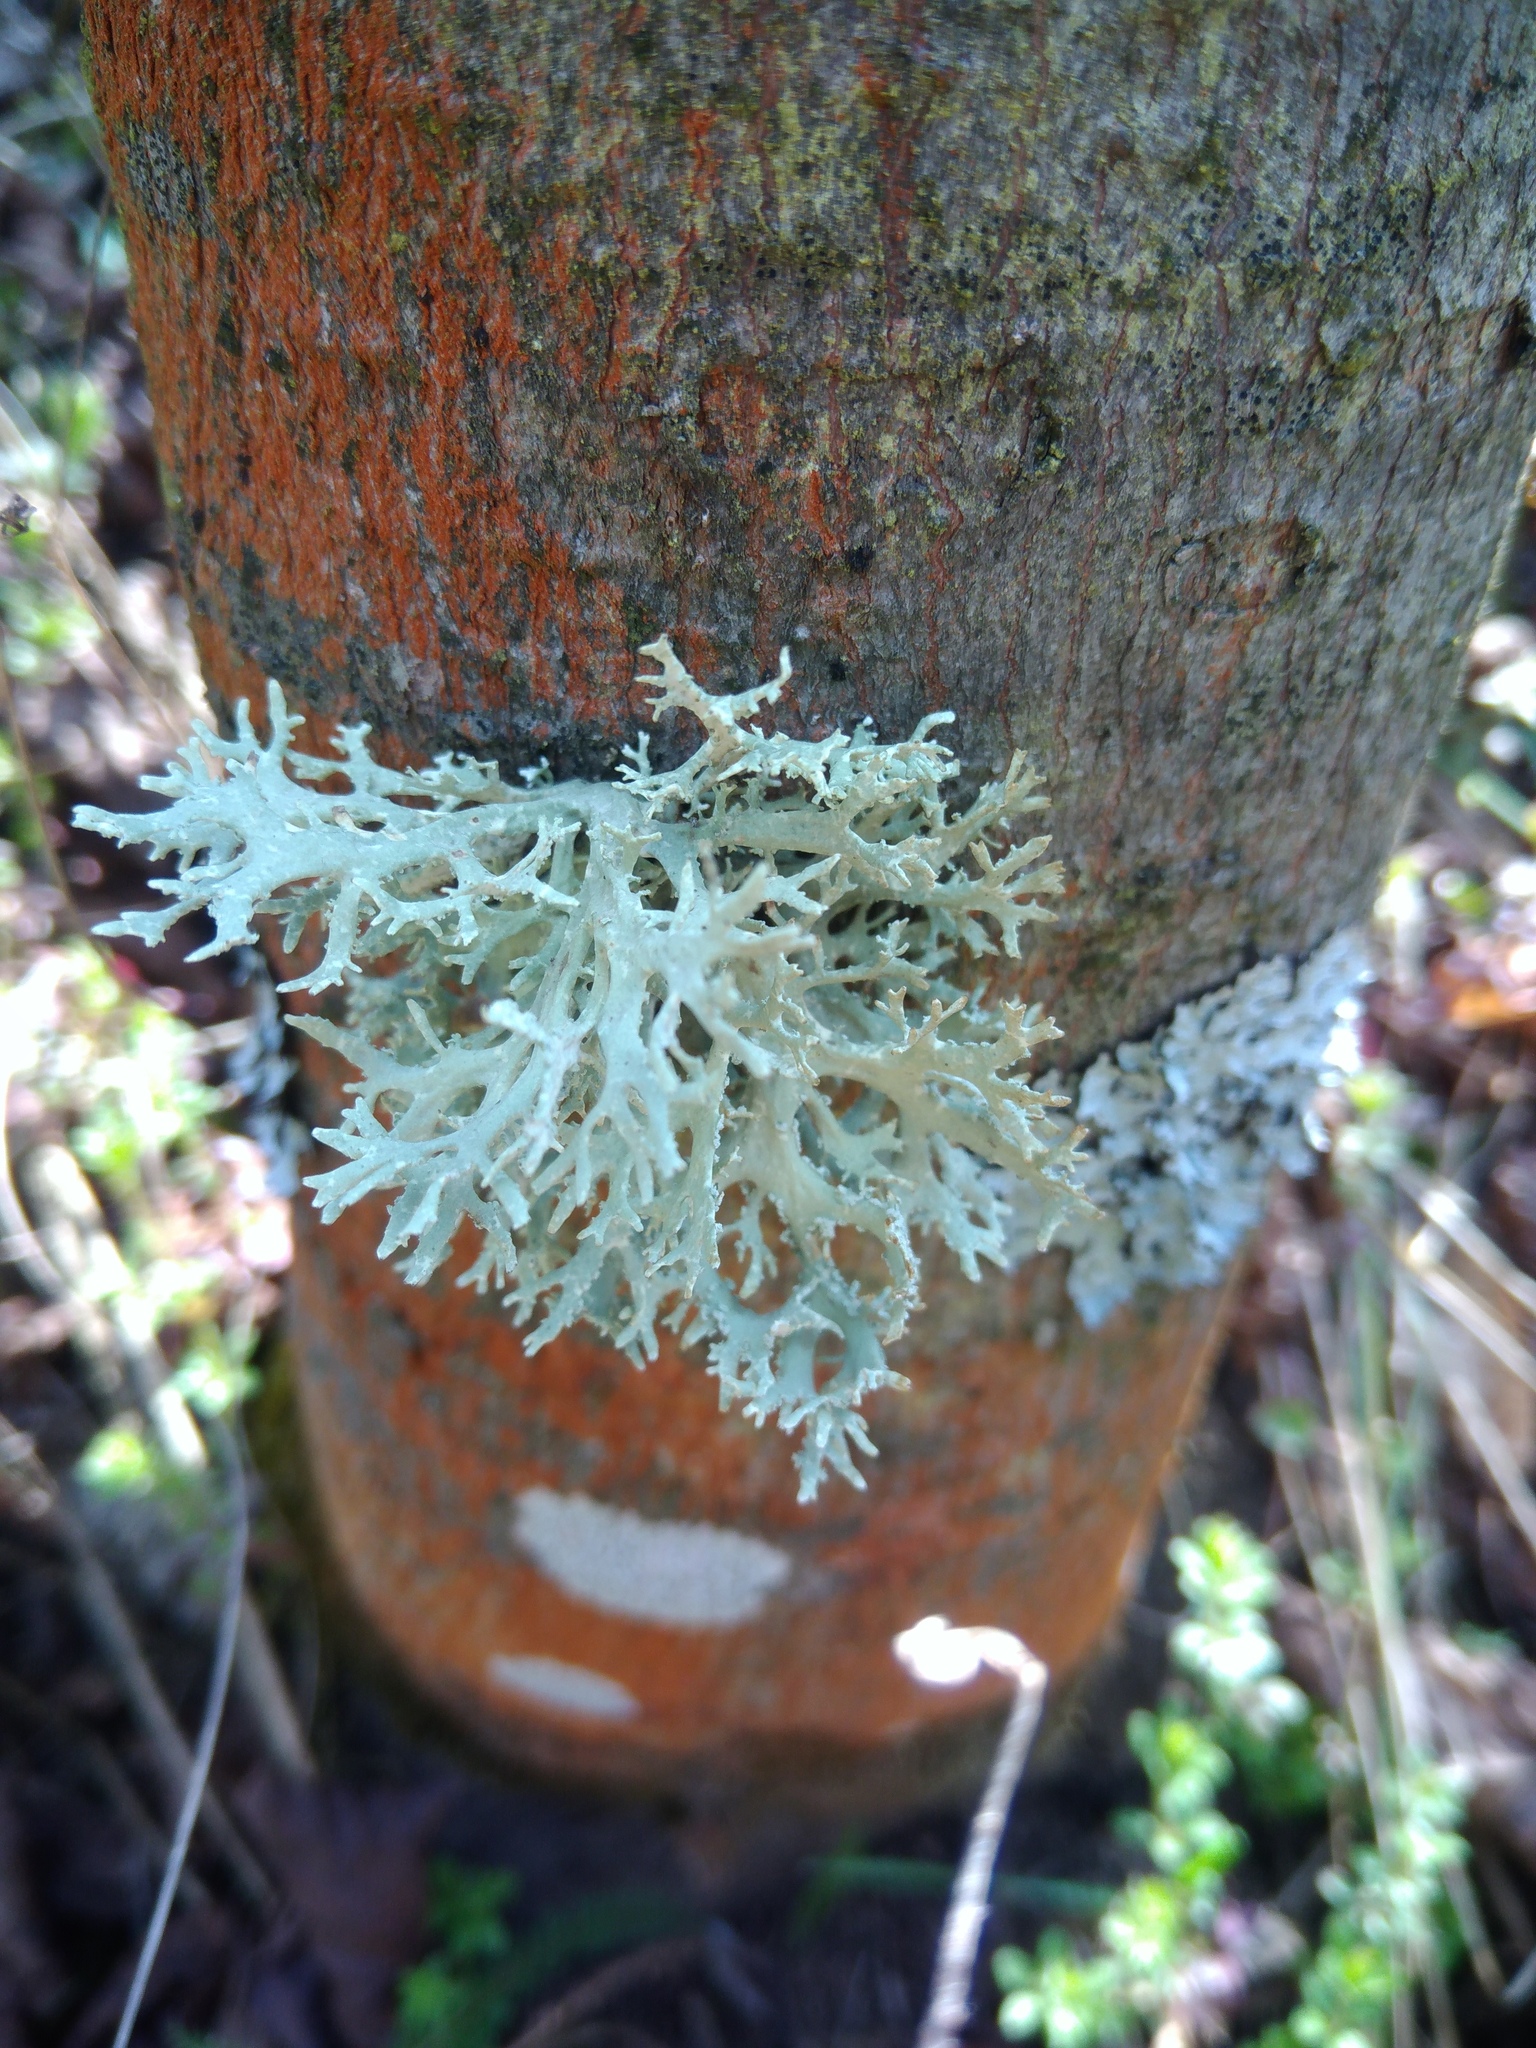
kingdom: Fungi
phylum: Ascomycota
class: Lecanoromycetes
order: Lecanorales
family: Parmeliaceae
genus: Evernia
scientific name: Evernia prunastri
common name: Oak moss
